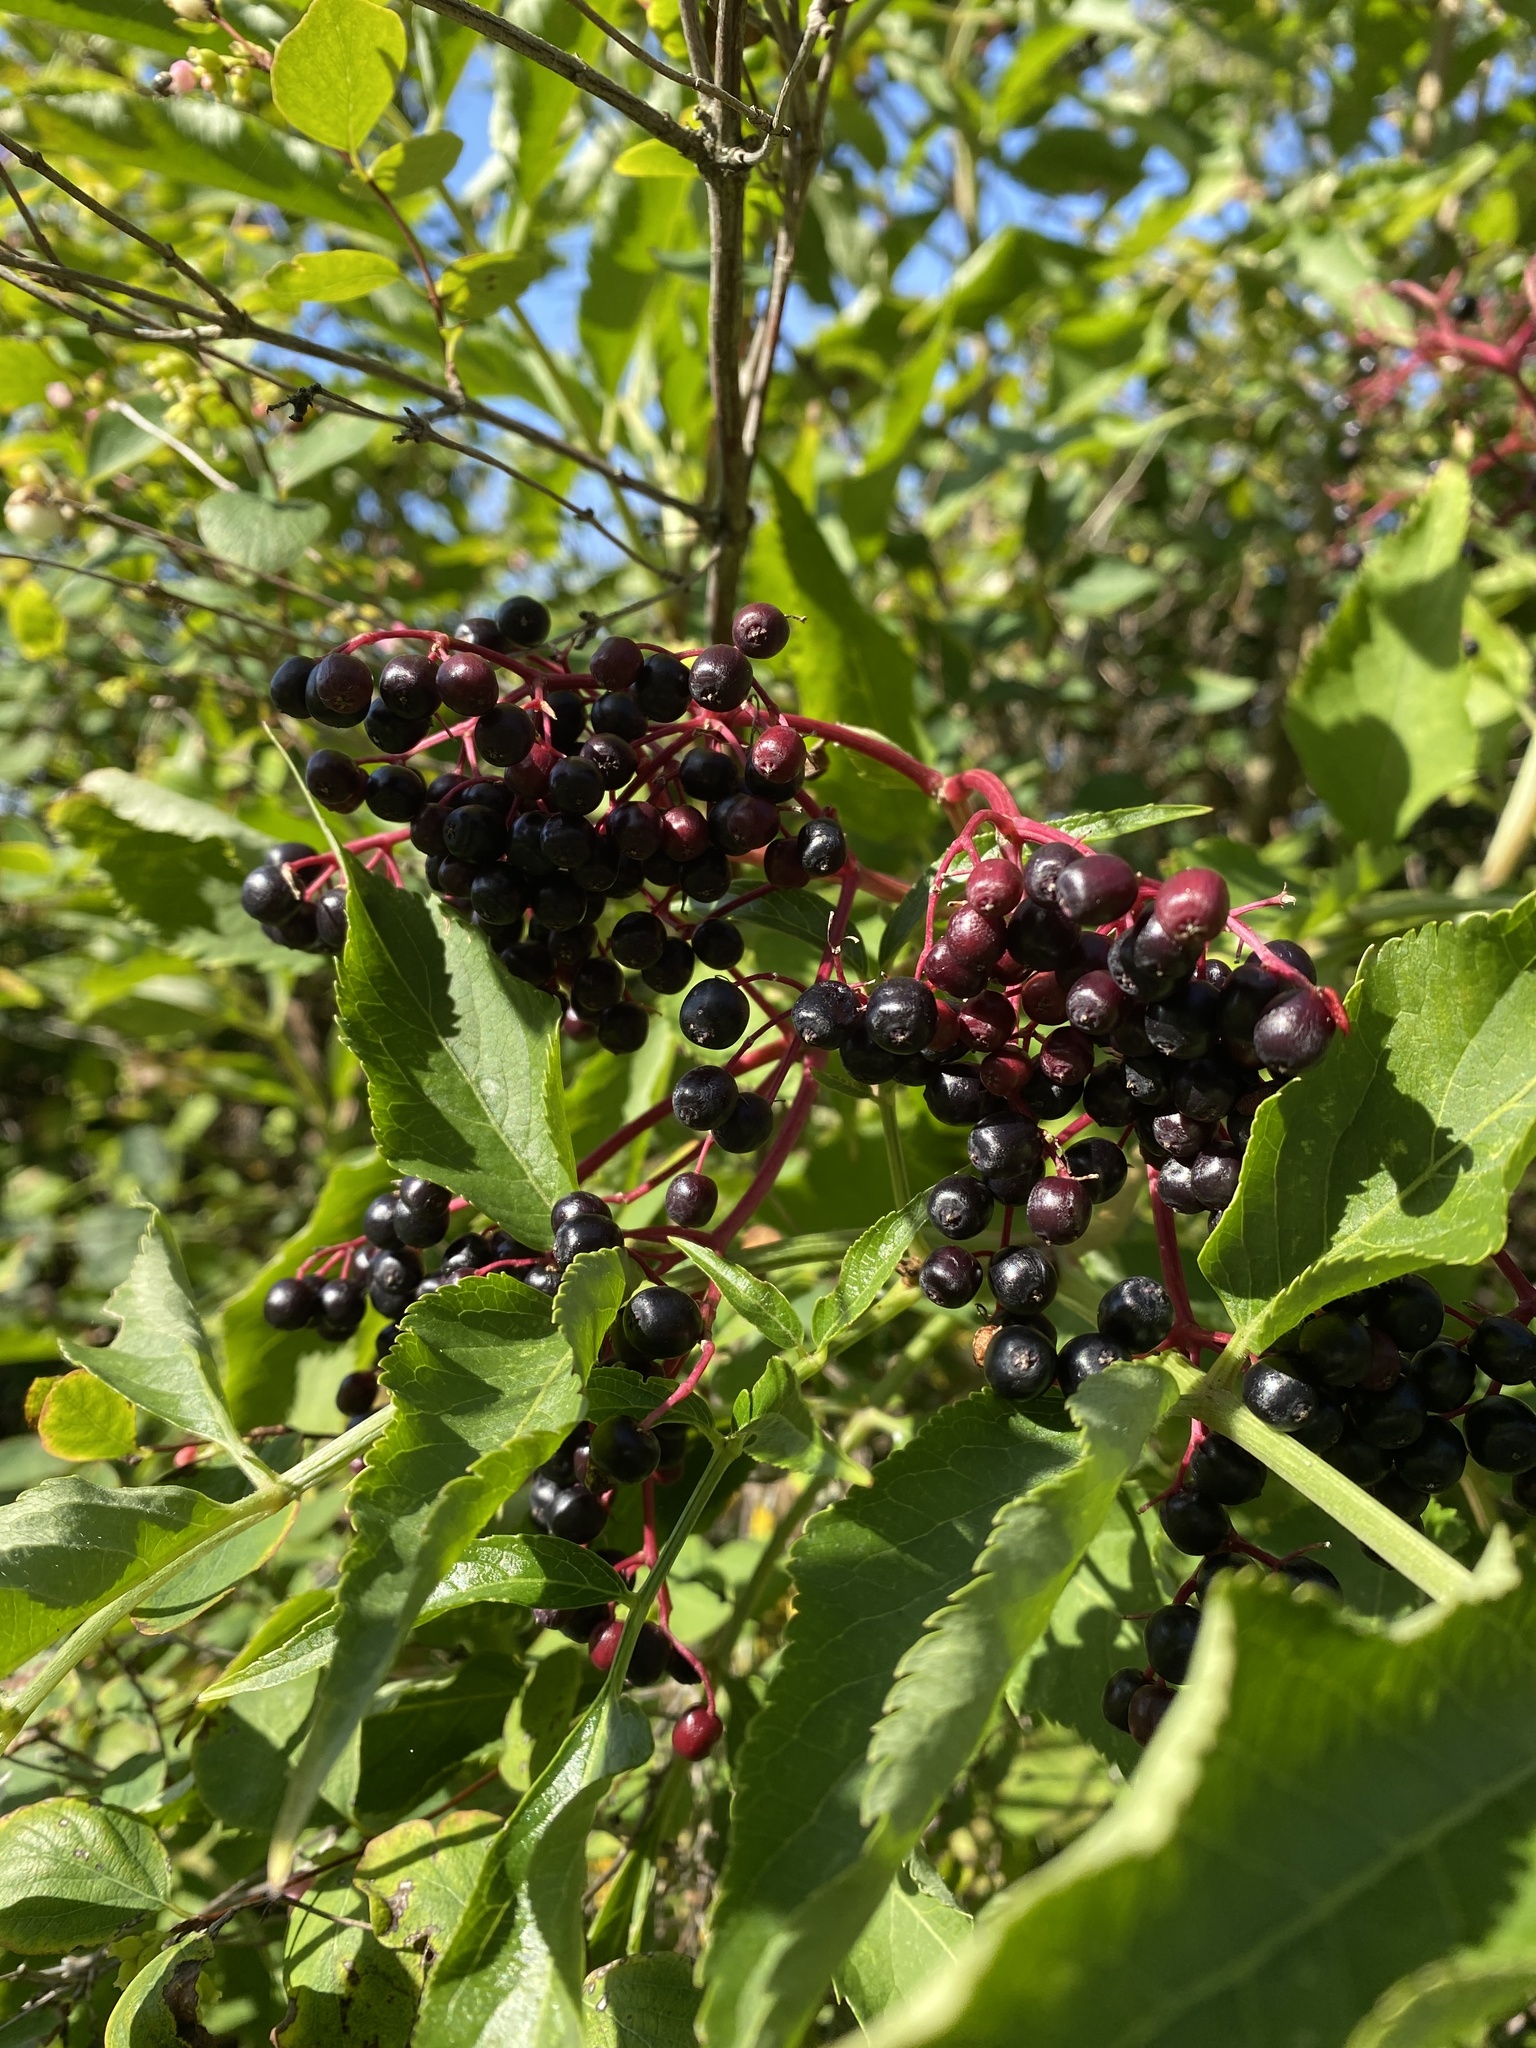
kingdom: Plantae
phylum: Tracheophyta
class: Magnoliopsida
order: Dipsacales
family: Viburnaceae
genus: Sambucus
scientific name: Sambucus nigra
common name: Elder
